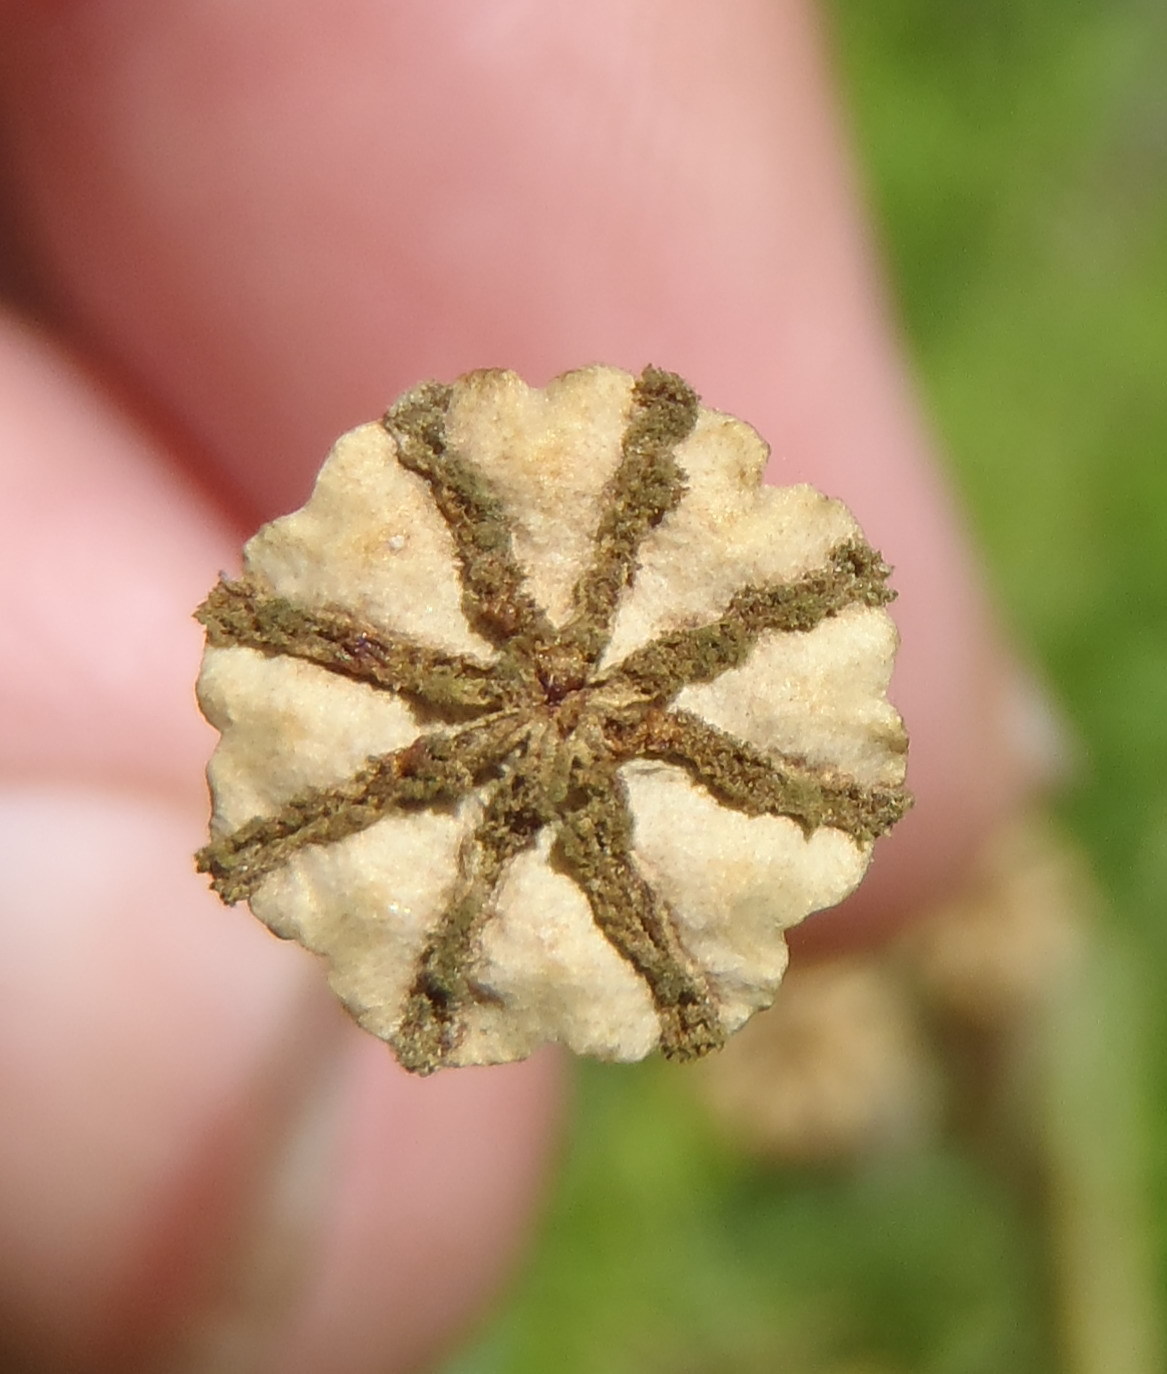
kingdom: Plantae
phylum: Tracheophyta
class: Magnoliopsida
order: Ranunculales
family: Papaveraceae
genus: Papaver
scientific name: Papaver aculeatum
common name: Bristle poppy
